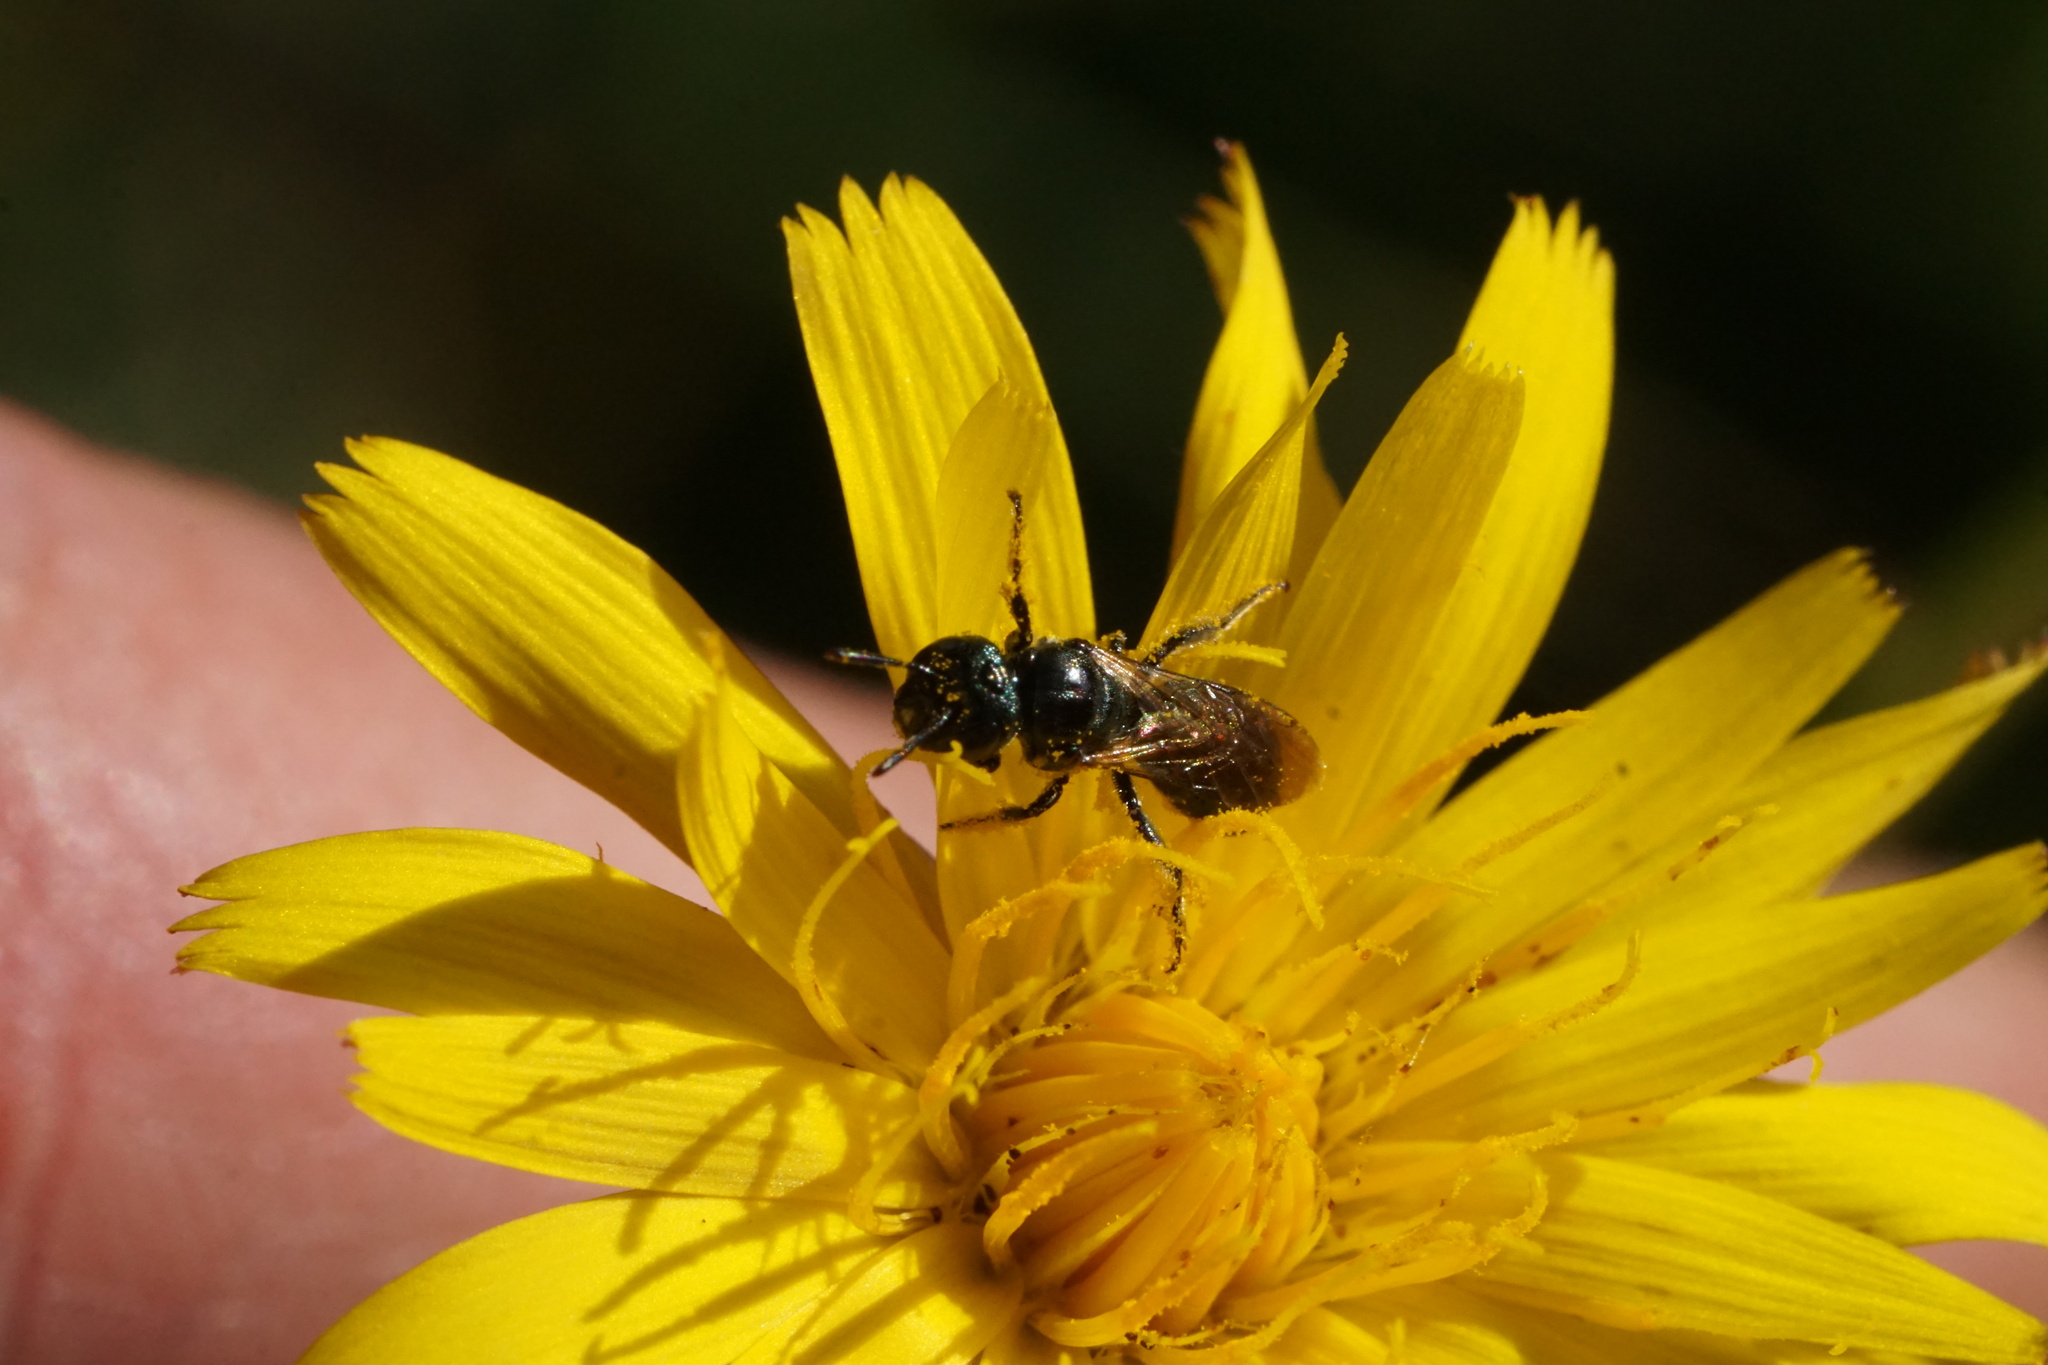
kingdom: Animalia
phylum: Arthropoda
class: Insecta
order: Hymenoptera
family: Apidae
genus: Zadontomerus
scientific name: Zadontomerus
